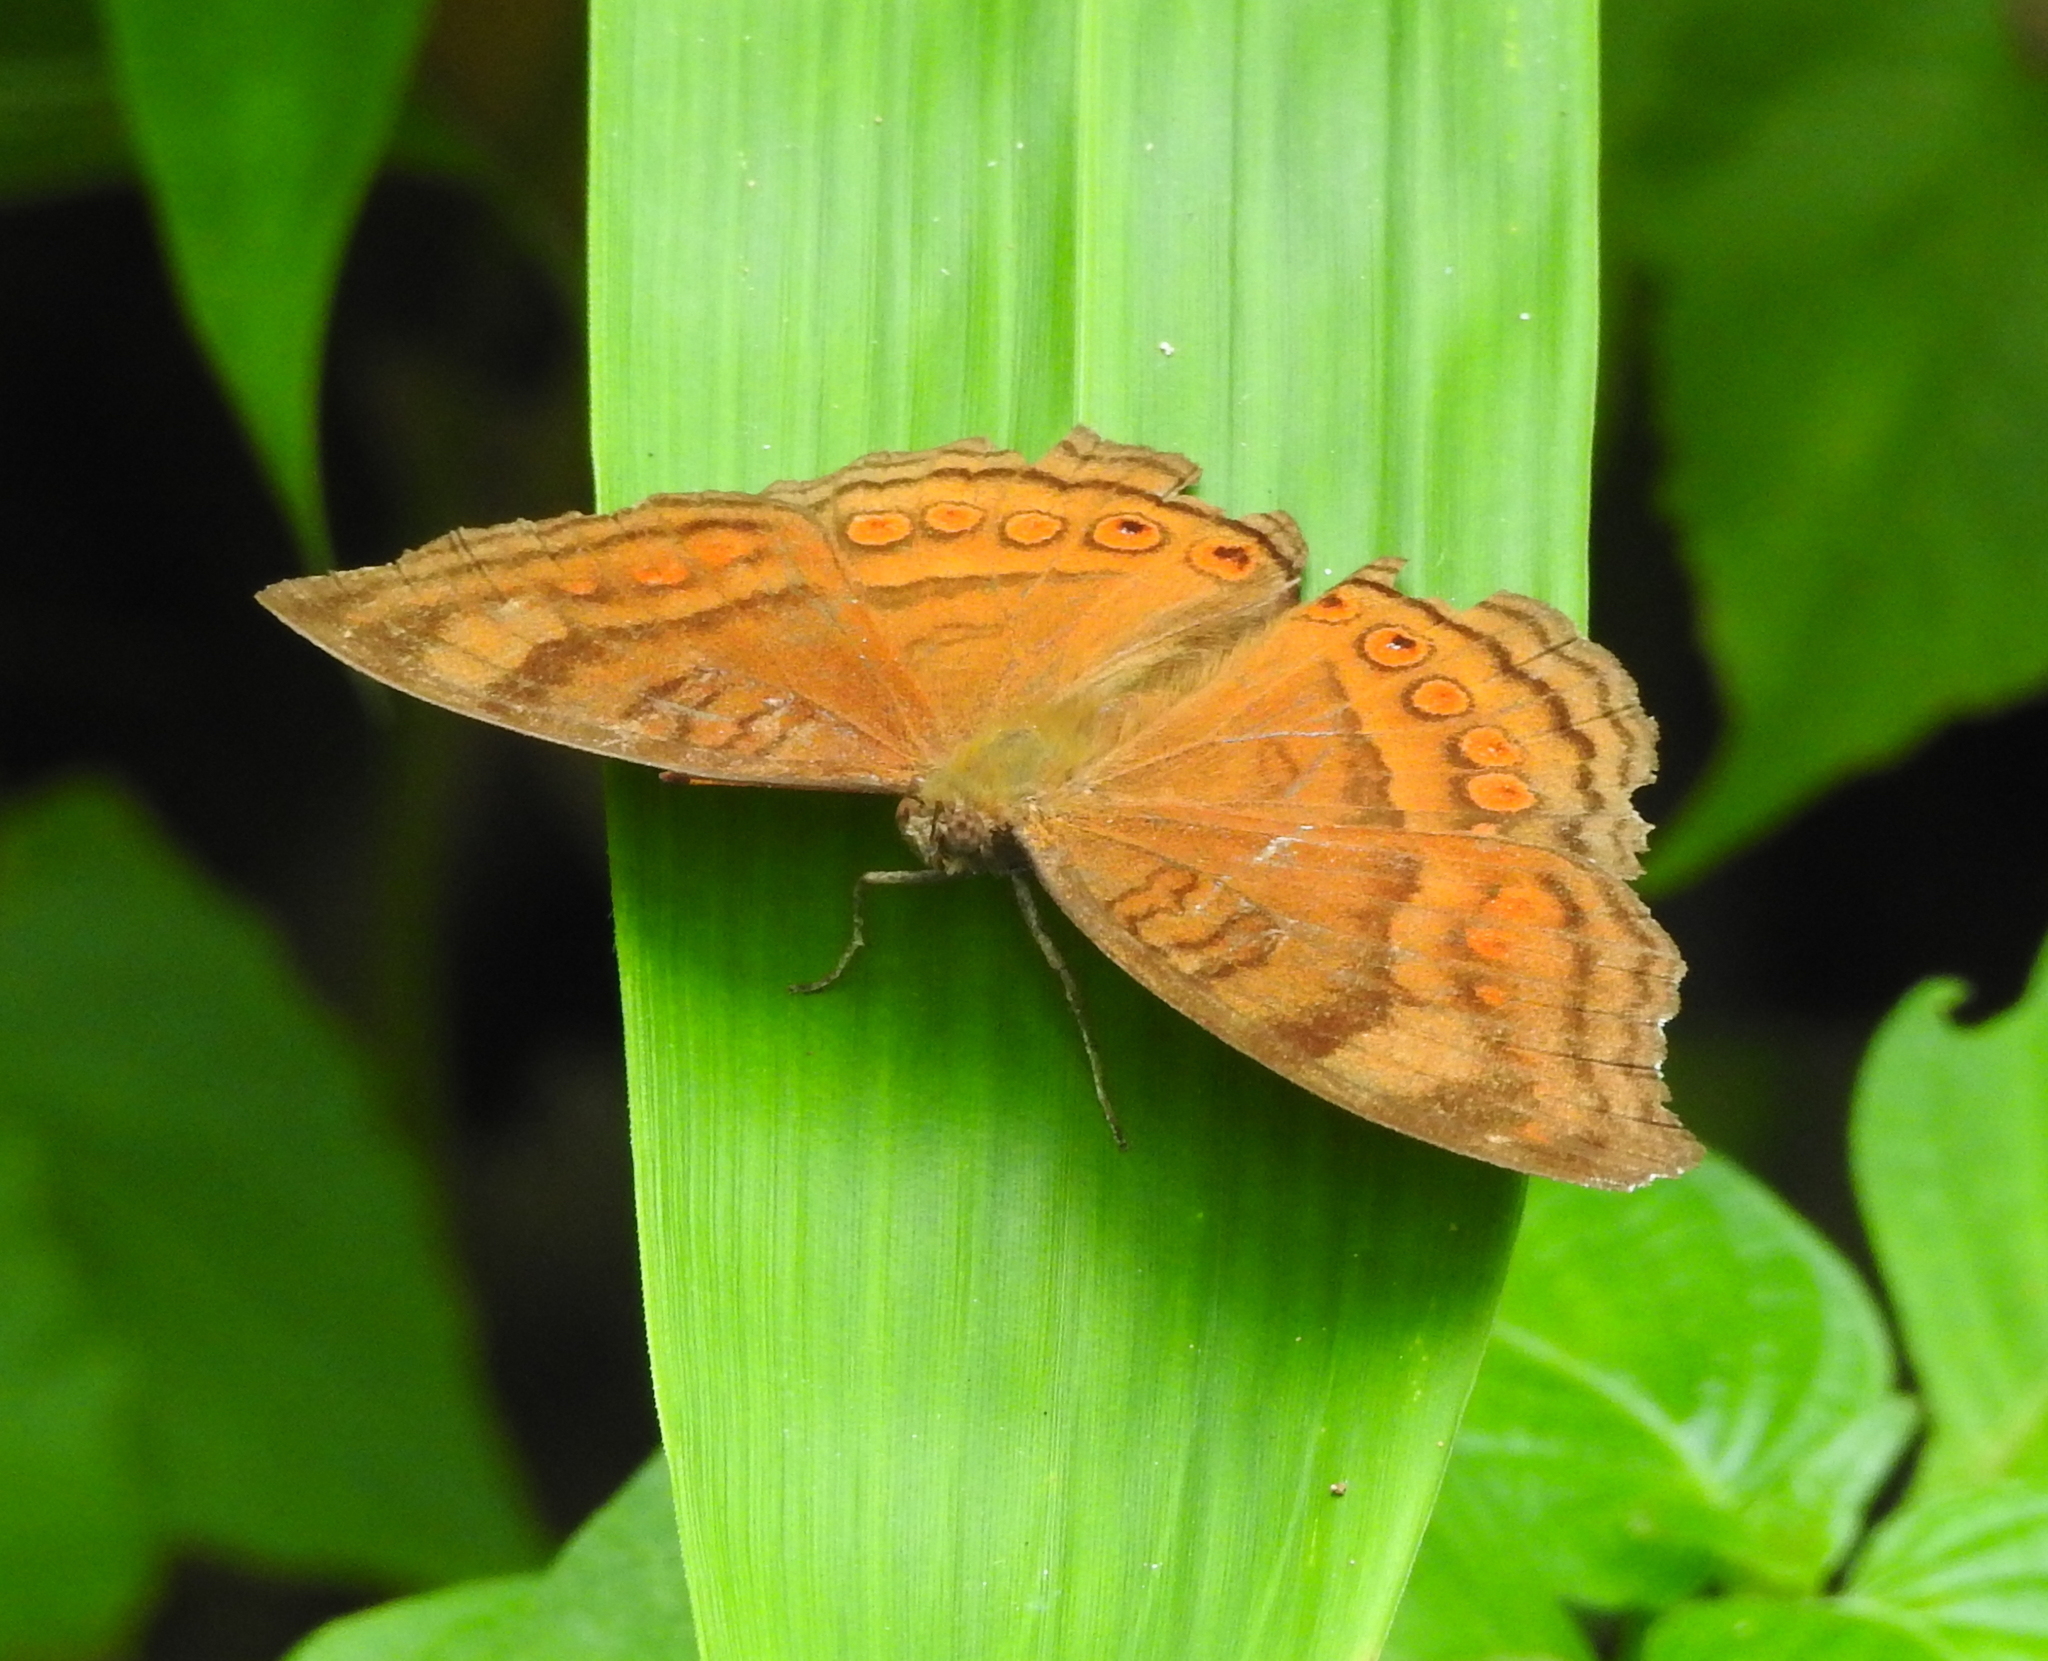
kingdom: Animalia
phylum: Arthropoda
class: Insecta
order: Lepidoptera
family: Nymphalidae
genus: Junonia
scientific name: Junonia hedonia
